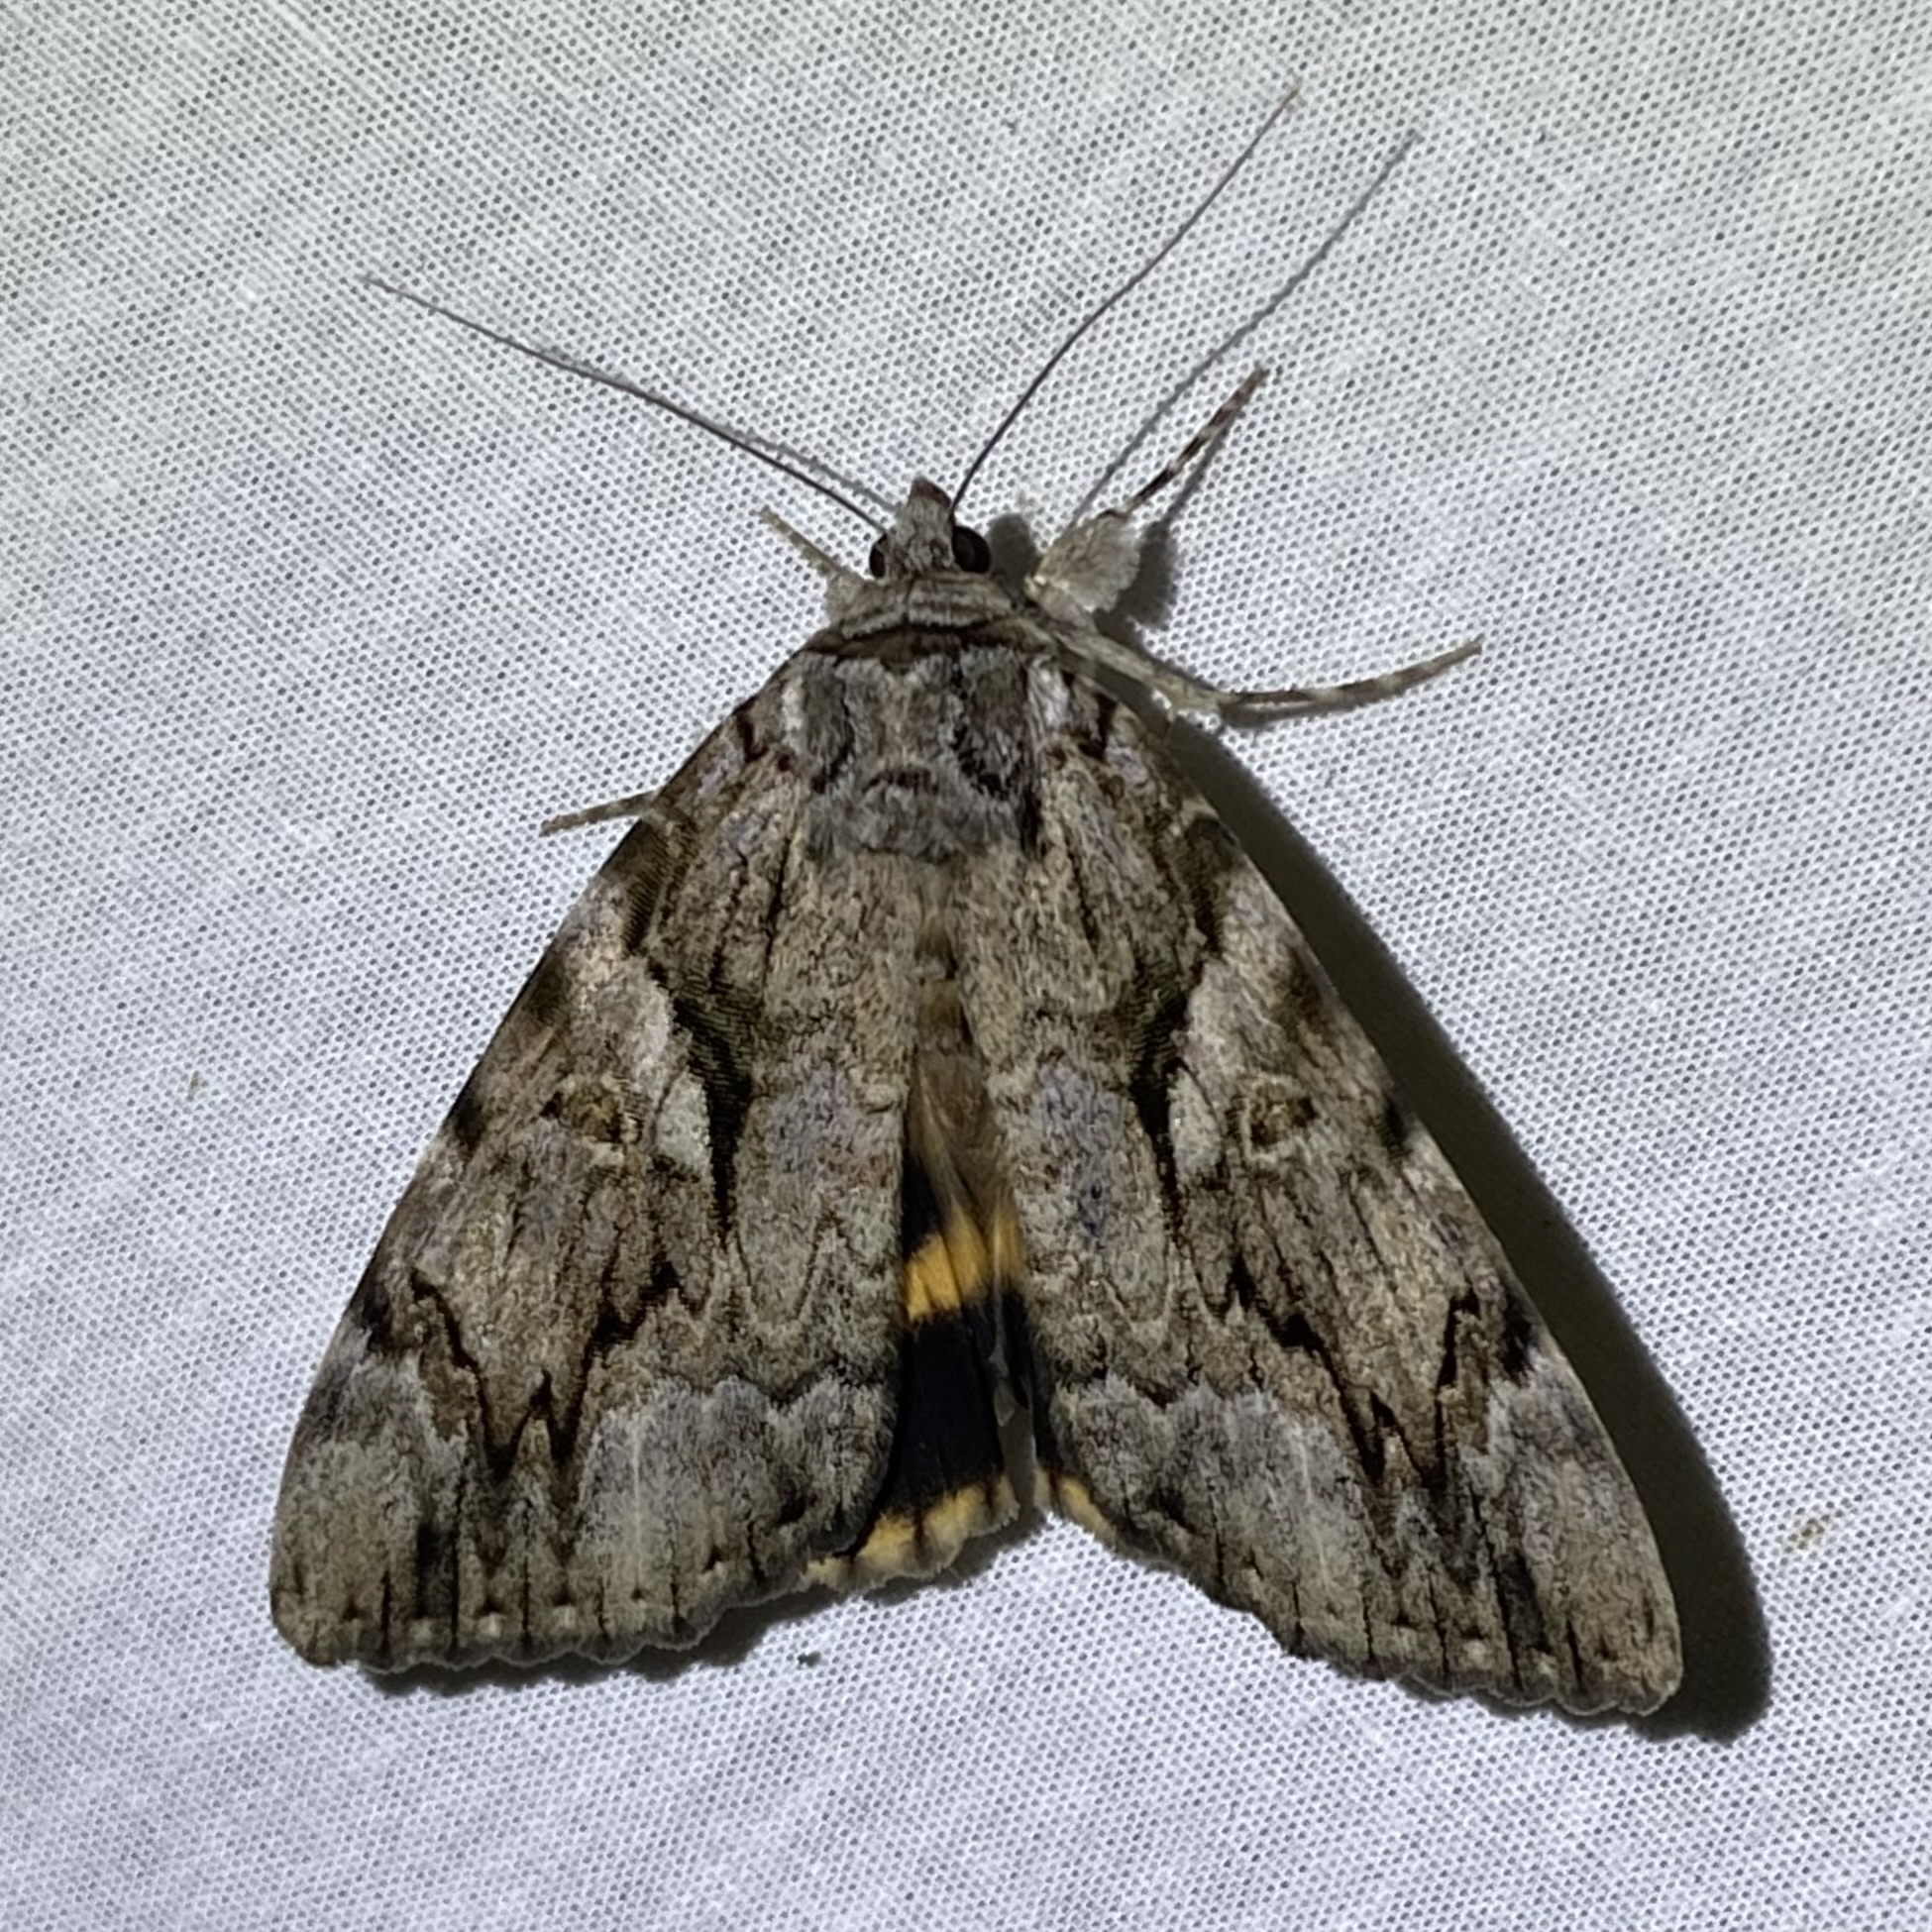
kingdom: Animalia
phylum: Arthropoda
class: Insecta
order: Lepidoptera
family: Erebidae
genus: Catocala
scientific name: Catocala cerogama
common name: Yellow banded underwing
